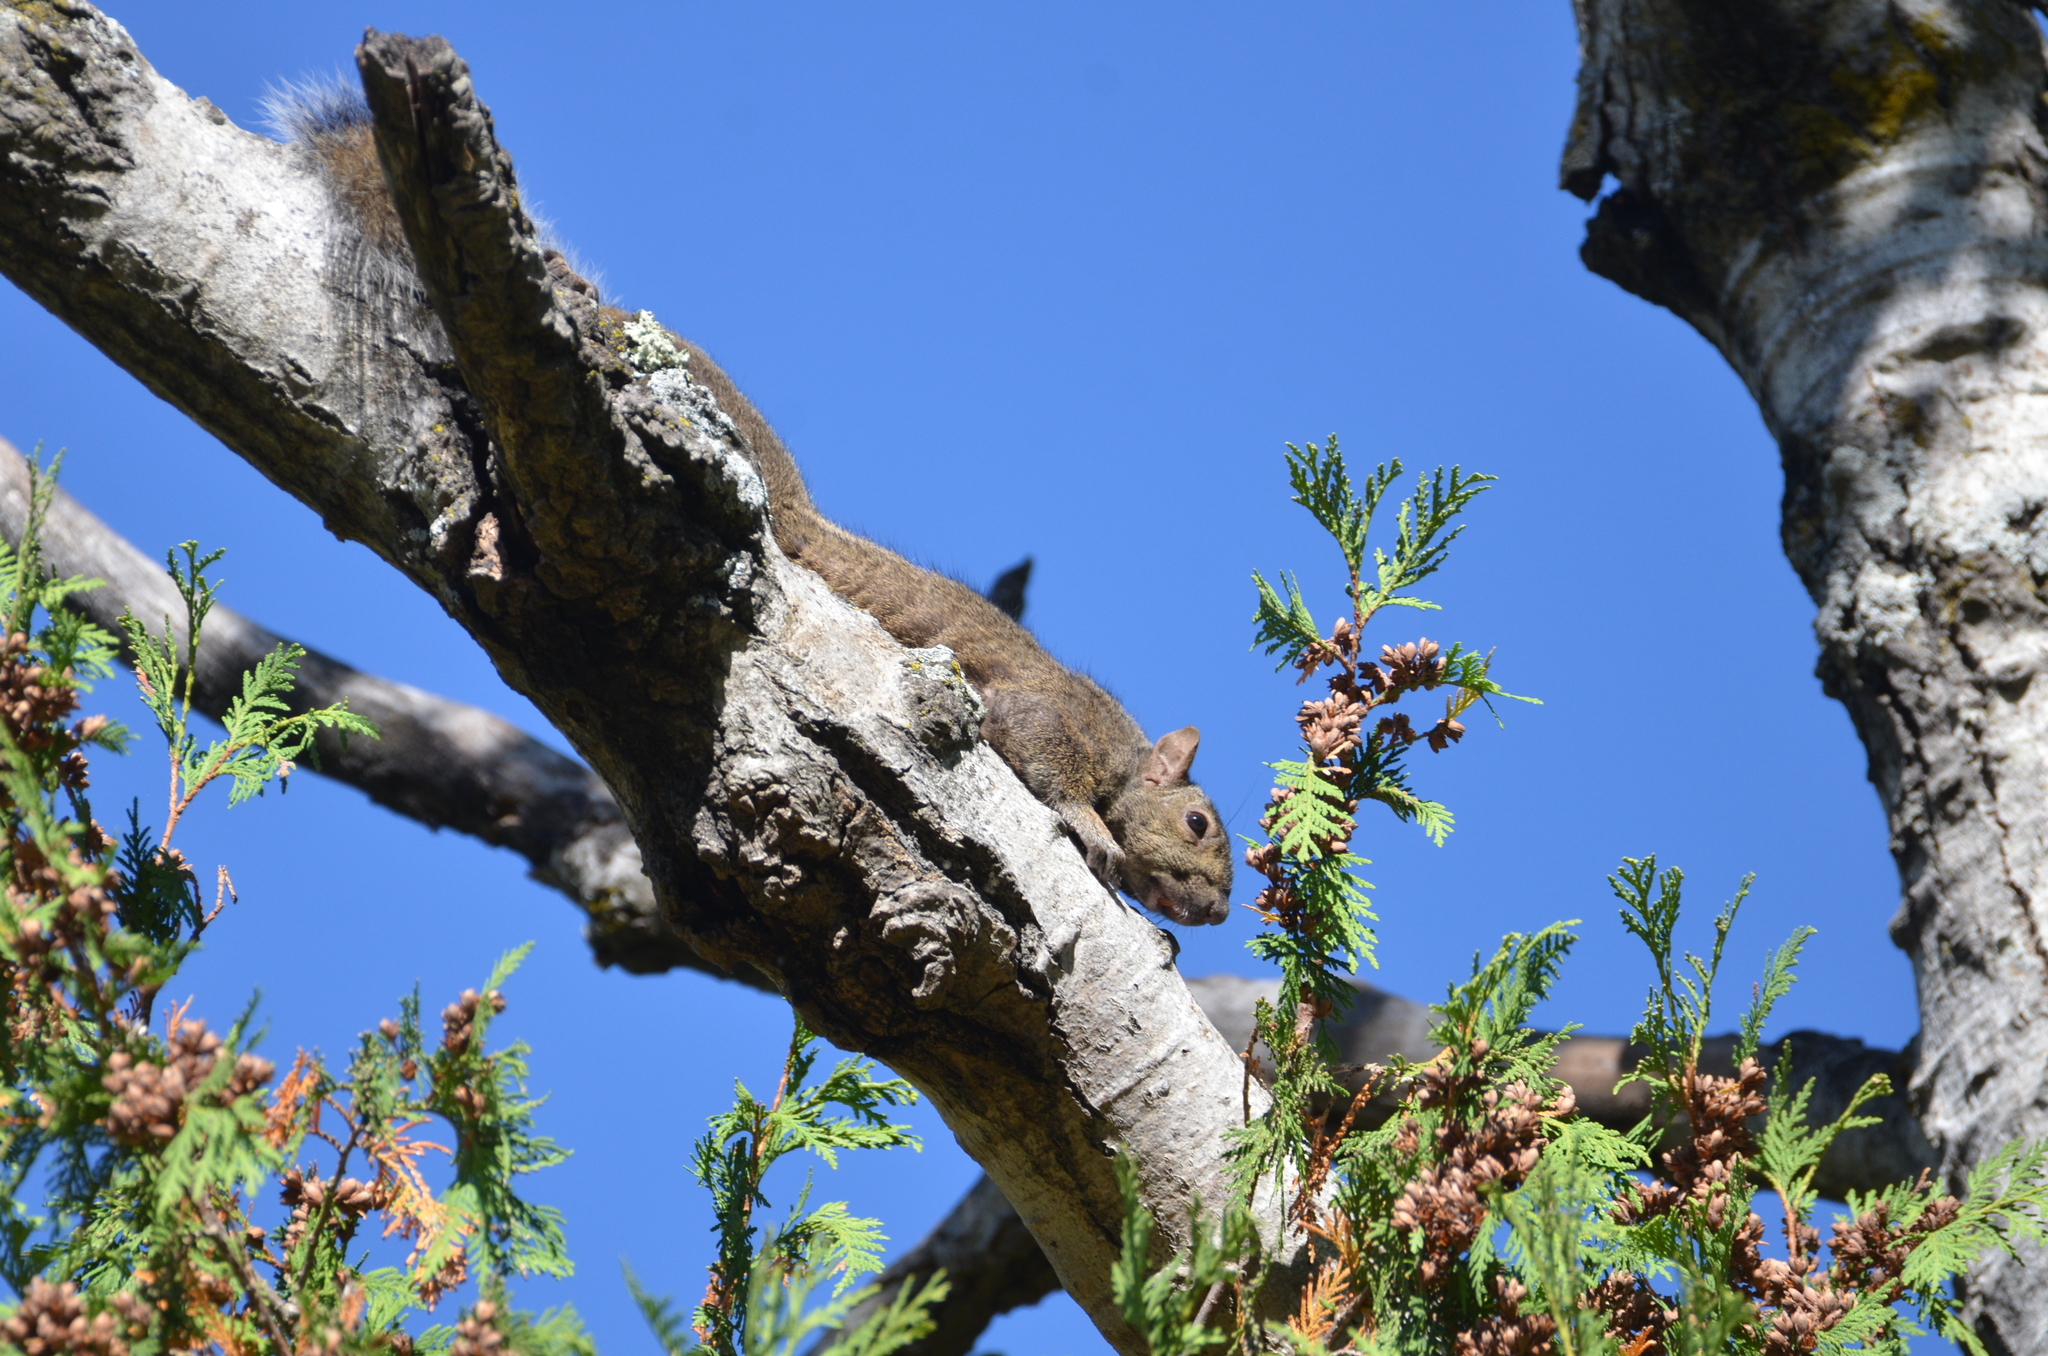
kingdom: Animalia
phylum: Chordata
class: Mammalia
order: Rodentia
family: Sciuridae
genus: Sciurus
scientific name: Sciurus carolinensis
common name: Eastern gray squirrel
